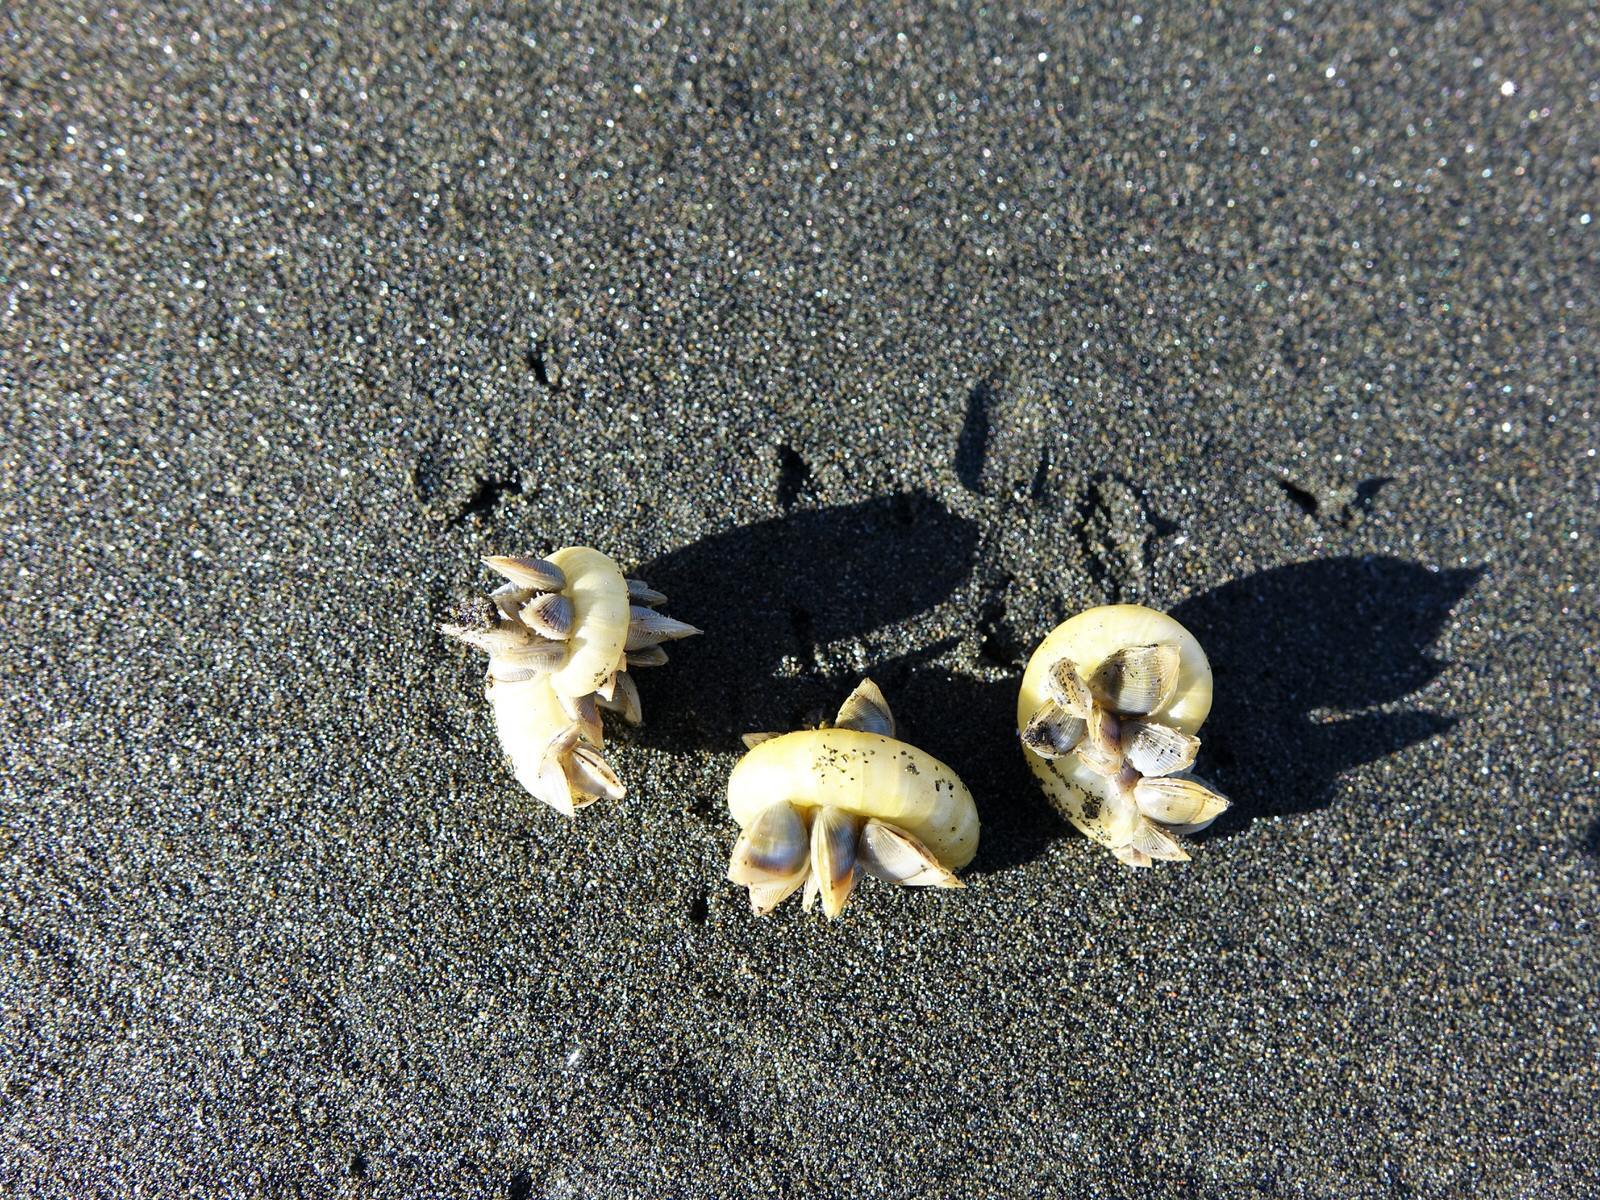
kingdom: Animalia
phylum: Mollusca
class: Cephalopoda
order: Spirulida
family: Spirulidae
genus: Spirula
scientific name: Spirula spirula
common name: Ram's horn squid
